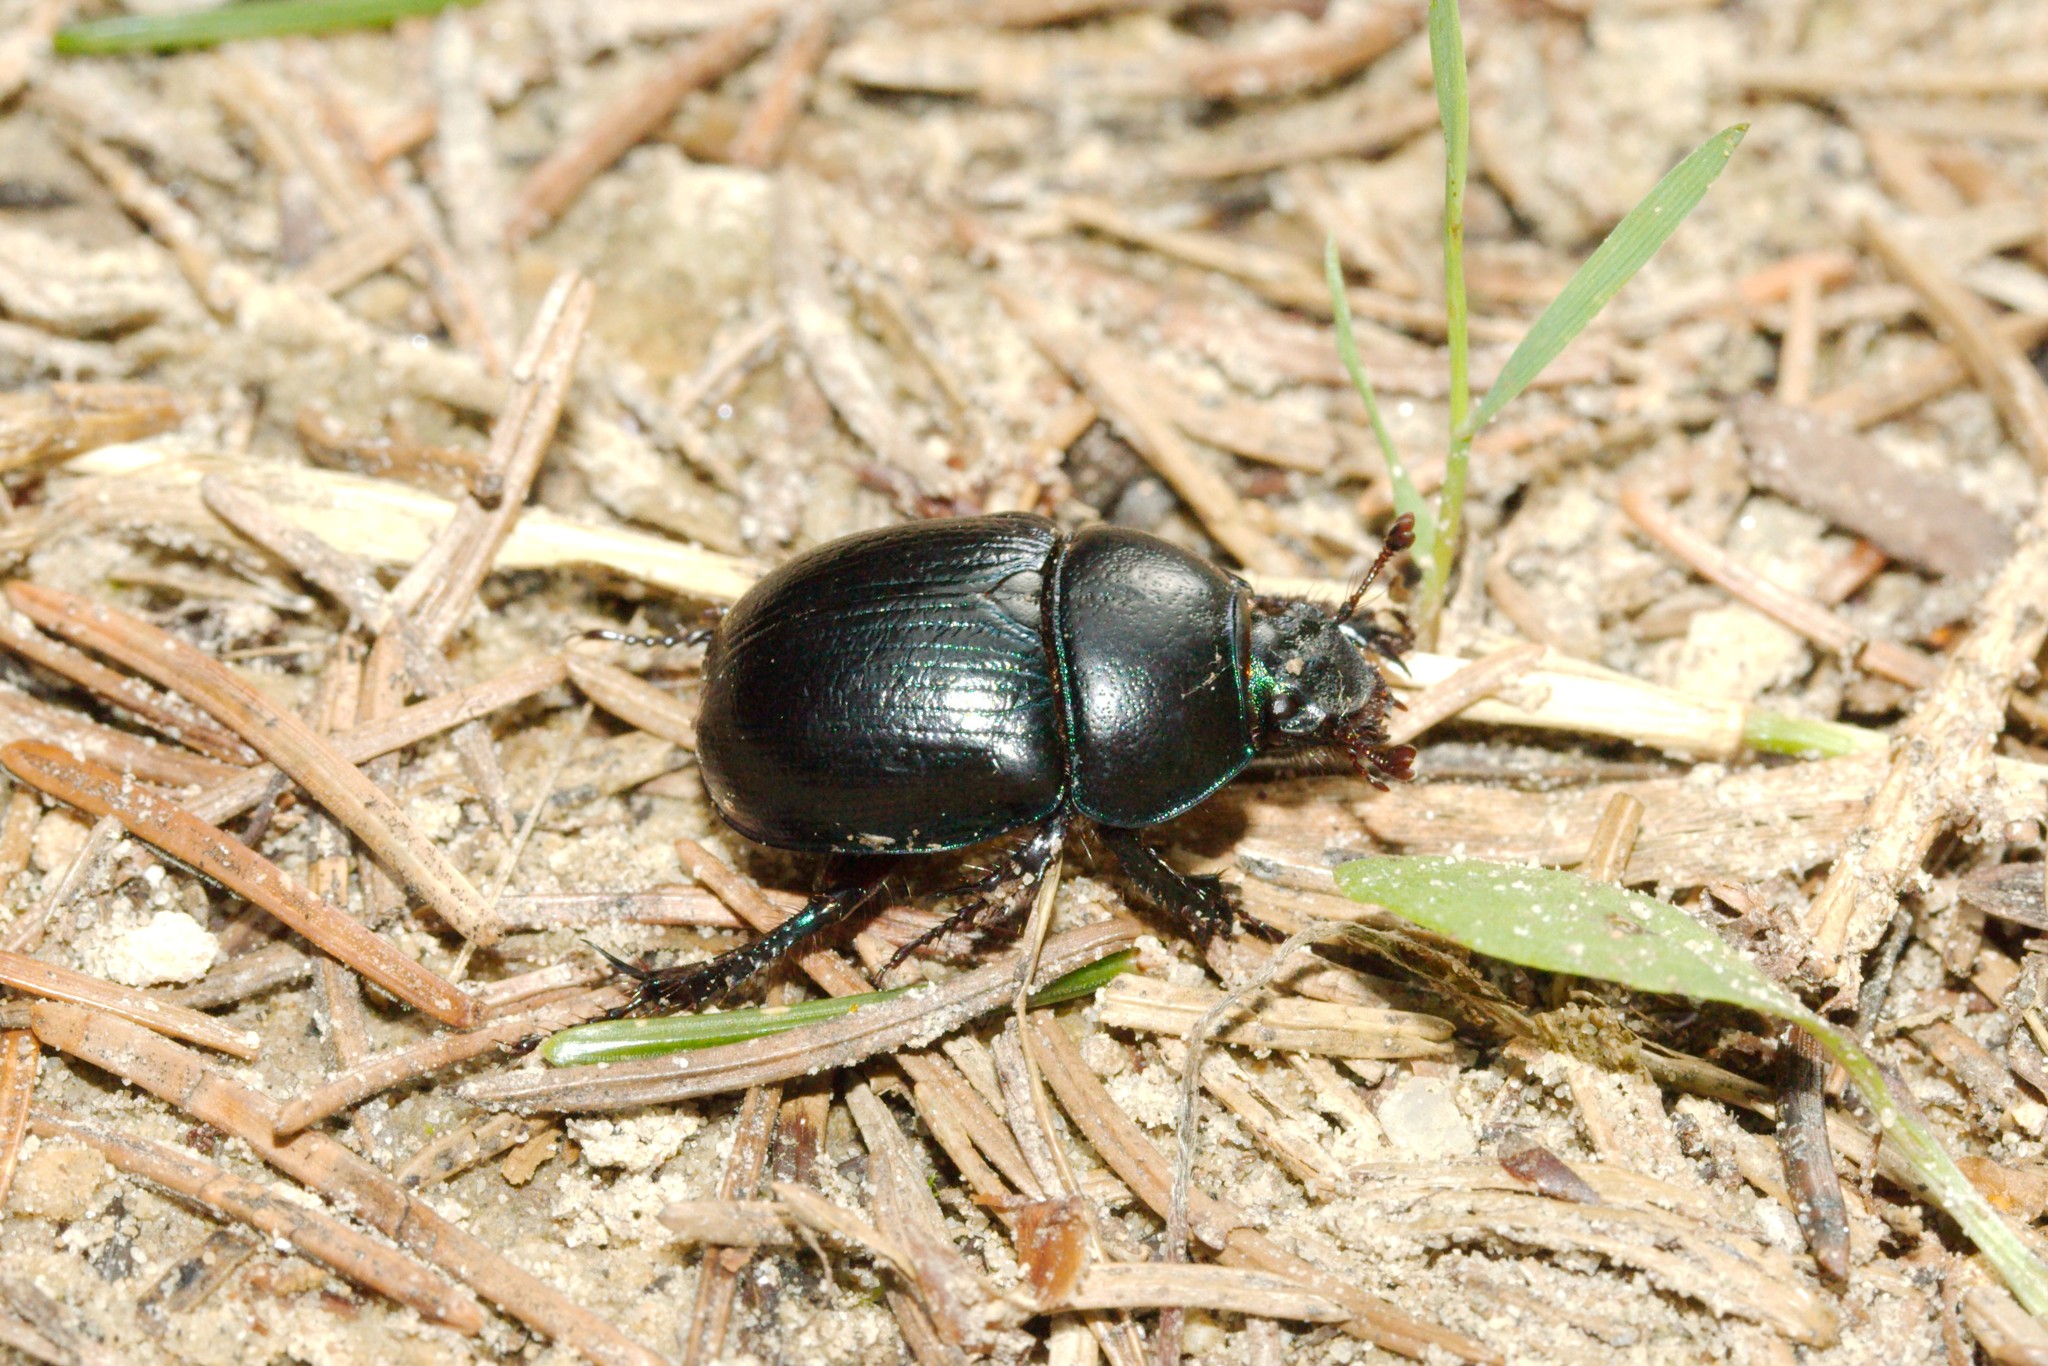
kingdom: Animalia
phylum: Arthropoda
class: Insecta
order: Coleoptera
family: Geotrupidae
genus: Anoplotrupes
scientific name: Anoplotrupes stercorosus
